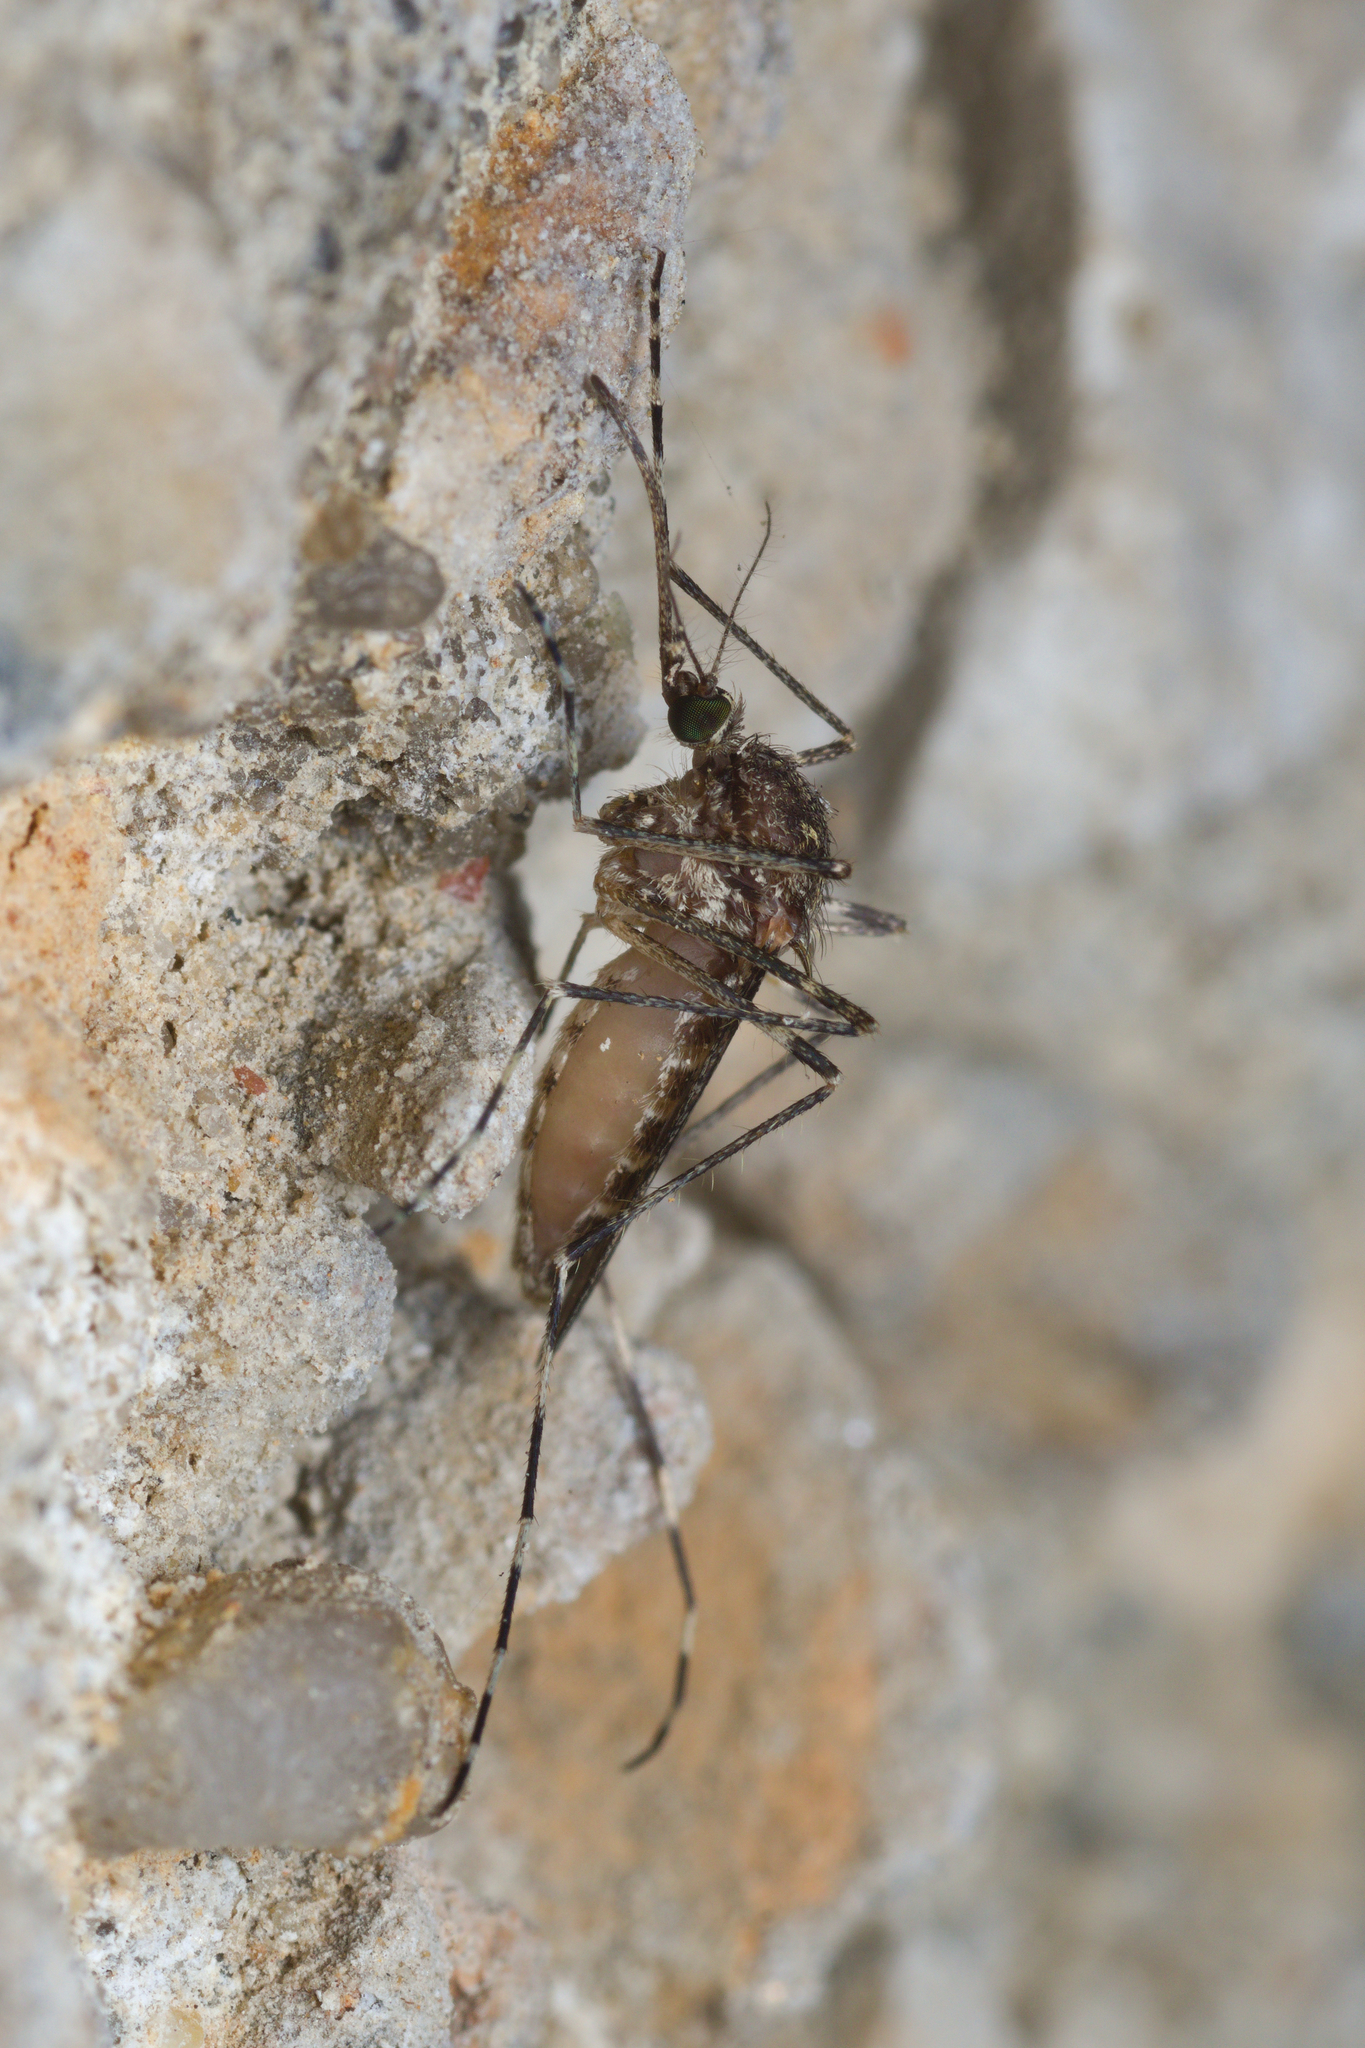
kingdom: Animalia
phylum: Arthropoda
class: Insecta
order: Diptera
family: Culicidae
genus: Culiseta
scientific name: Culiseta annulata
